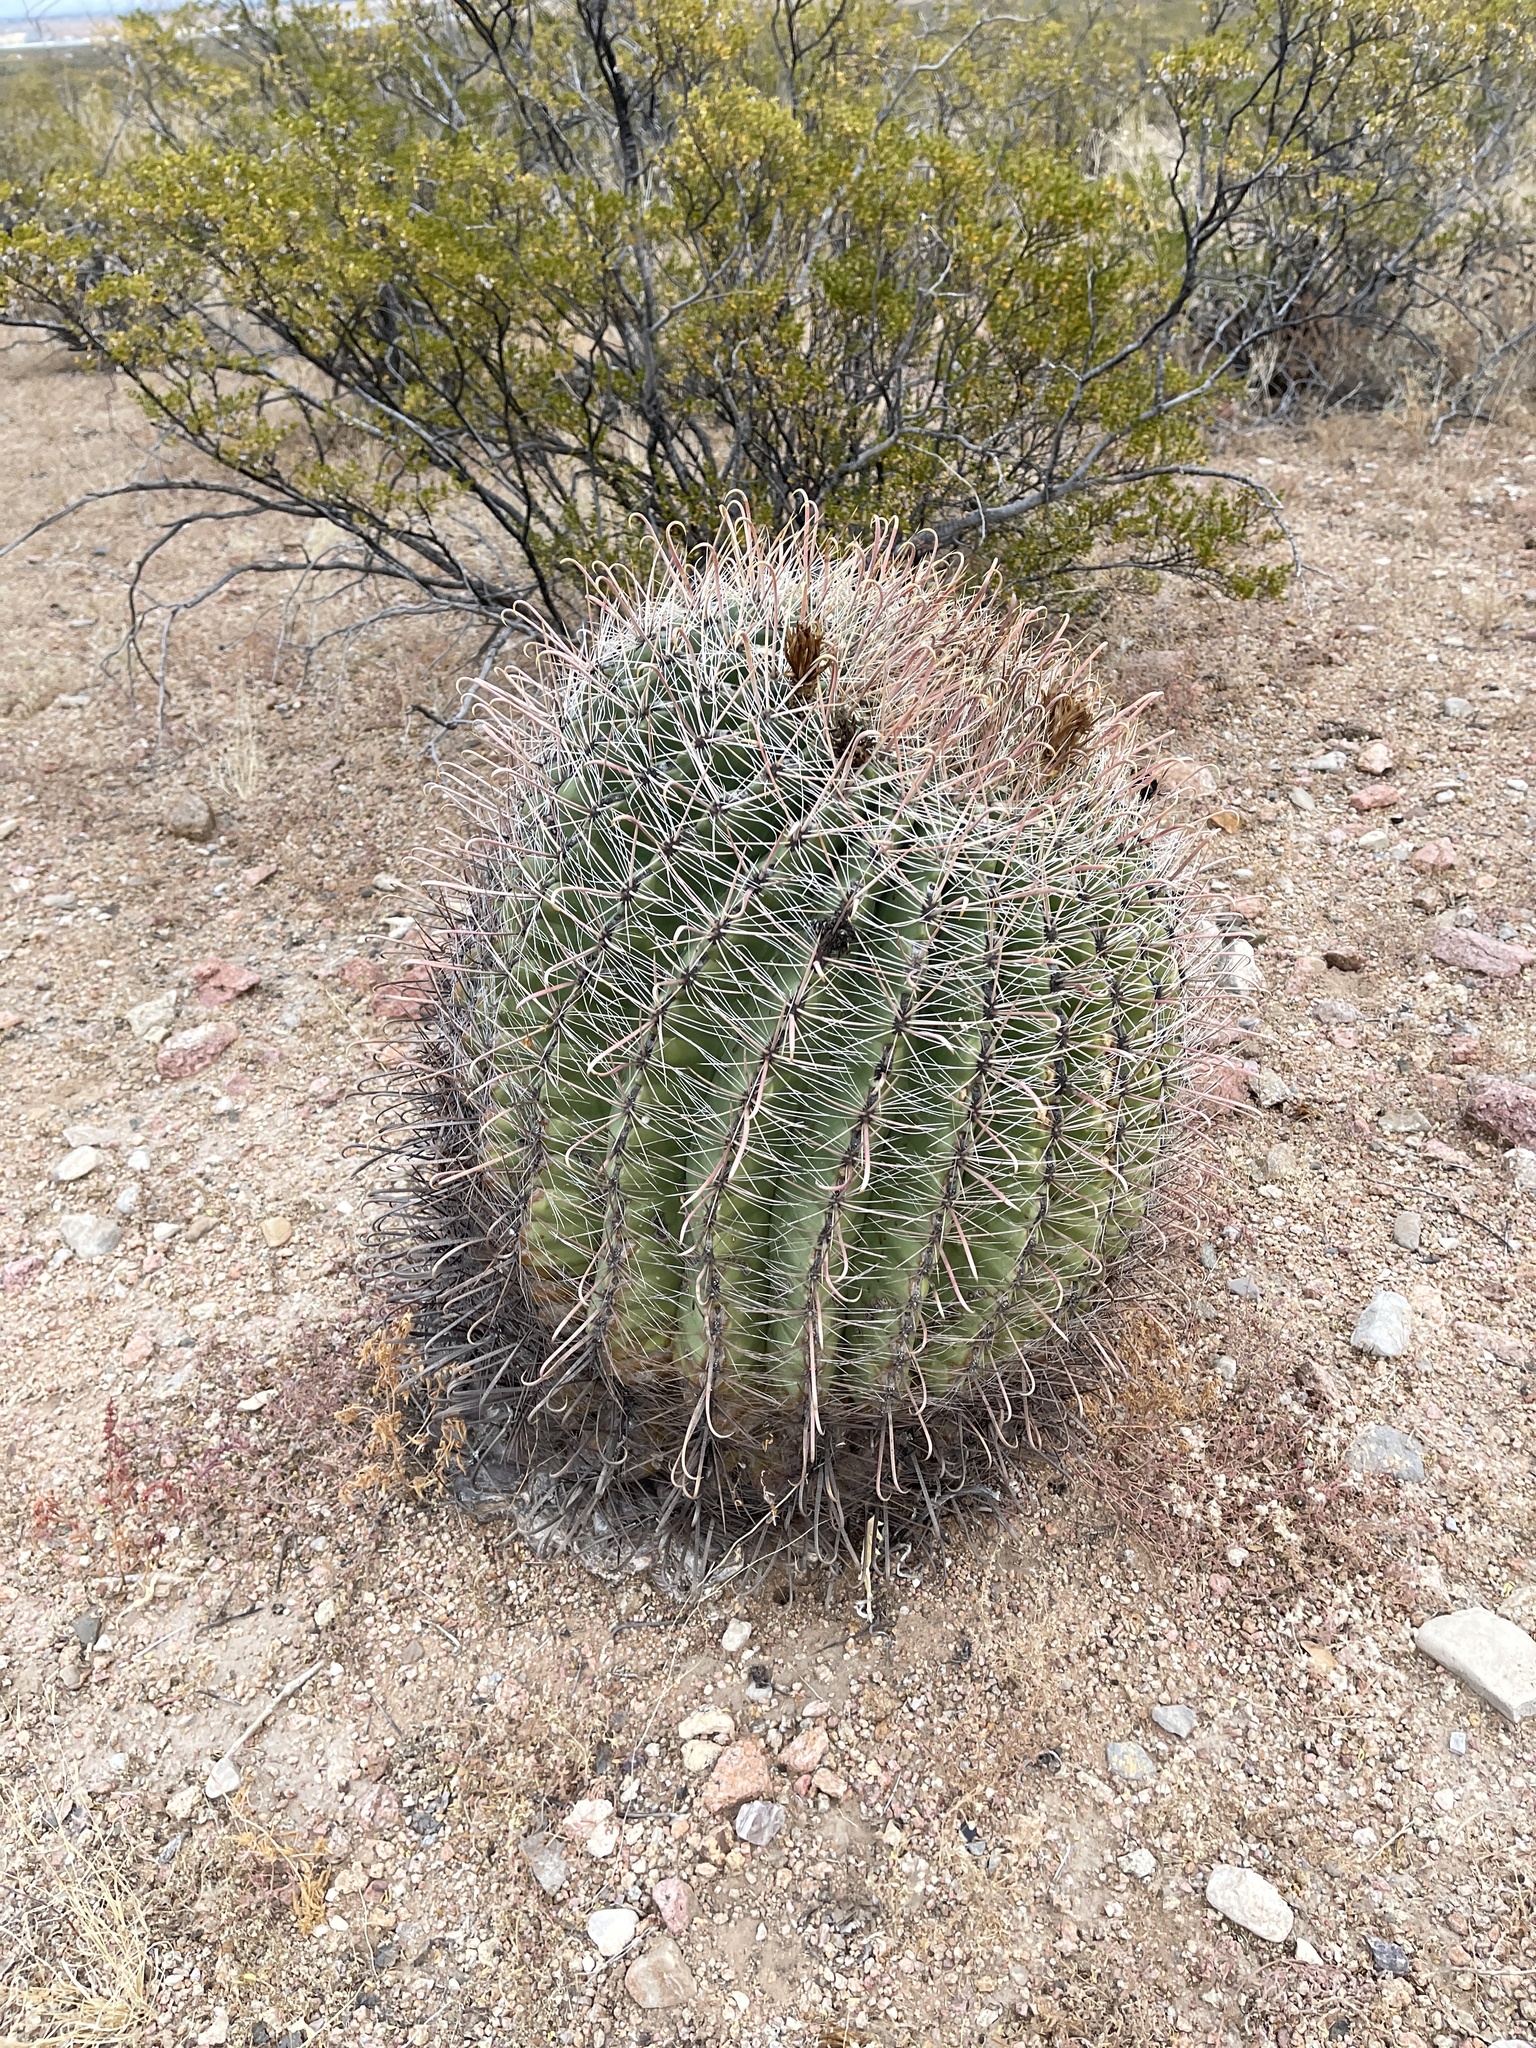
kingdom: Plantae
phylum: Tracheophyta
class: Magnoliopsida
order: Caryophyllales
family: Cactaceae
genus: Ferocactus
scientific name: Ferocactus wislizeni
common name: Candy barrel cactus
